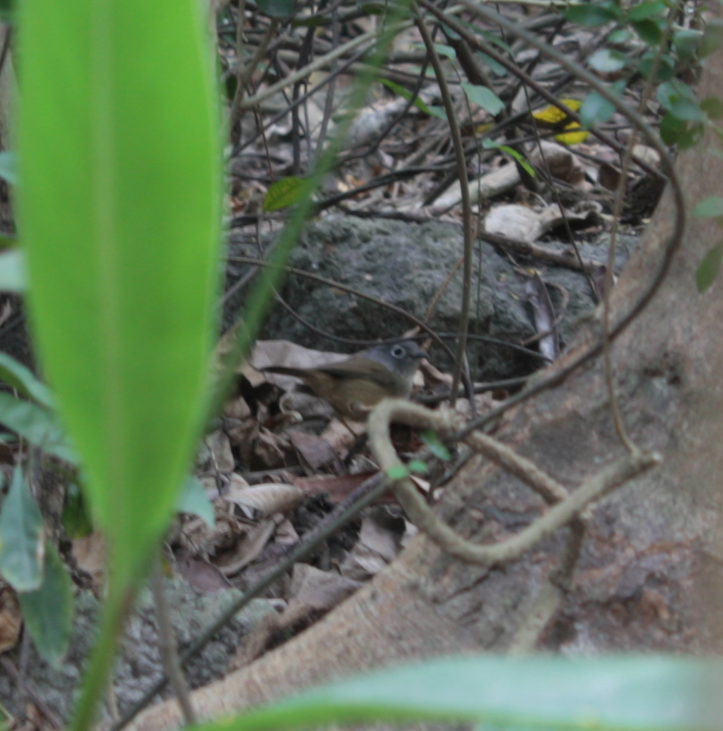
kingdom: Animalia
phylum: Chordata
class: Aves
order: Passeriformes
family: Pellorneidae
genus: Alcippe
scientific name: Alcippe morrisonia
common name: Grey-cheeked fulvetta
